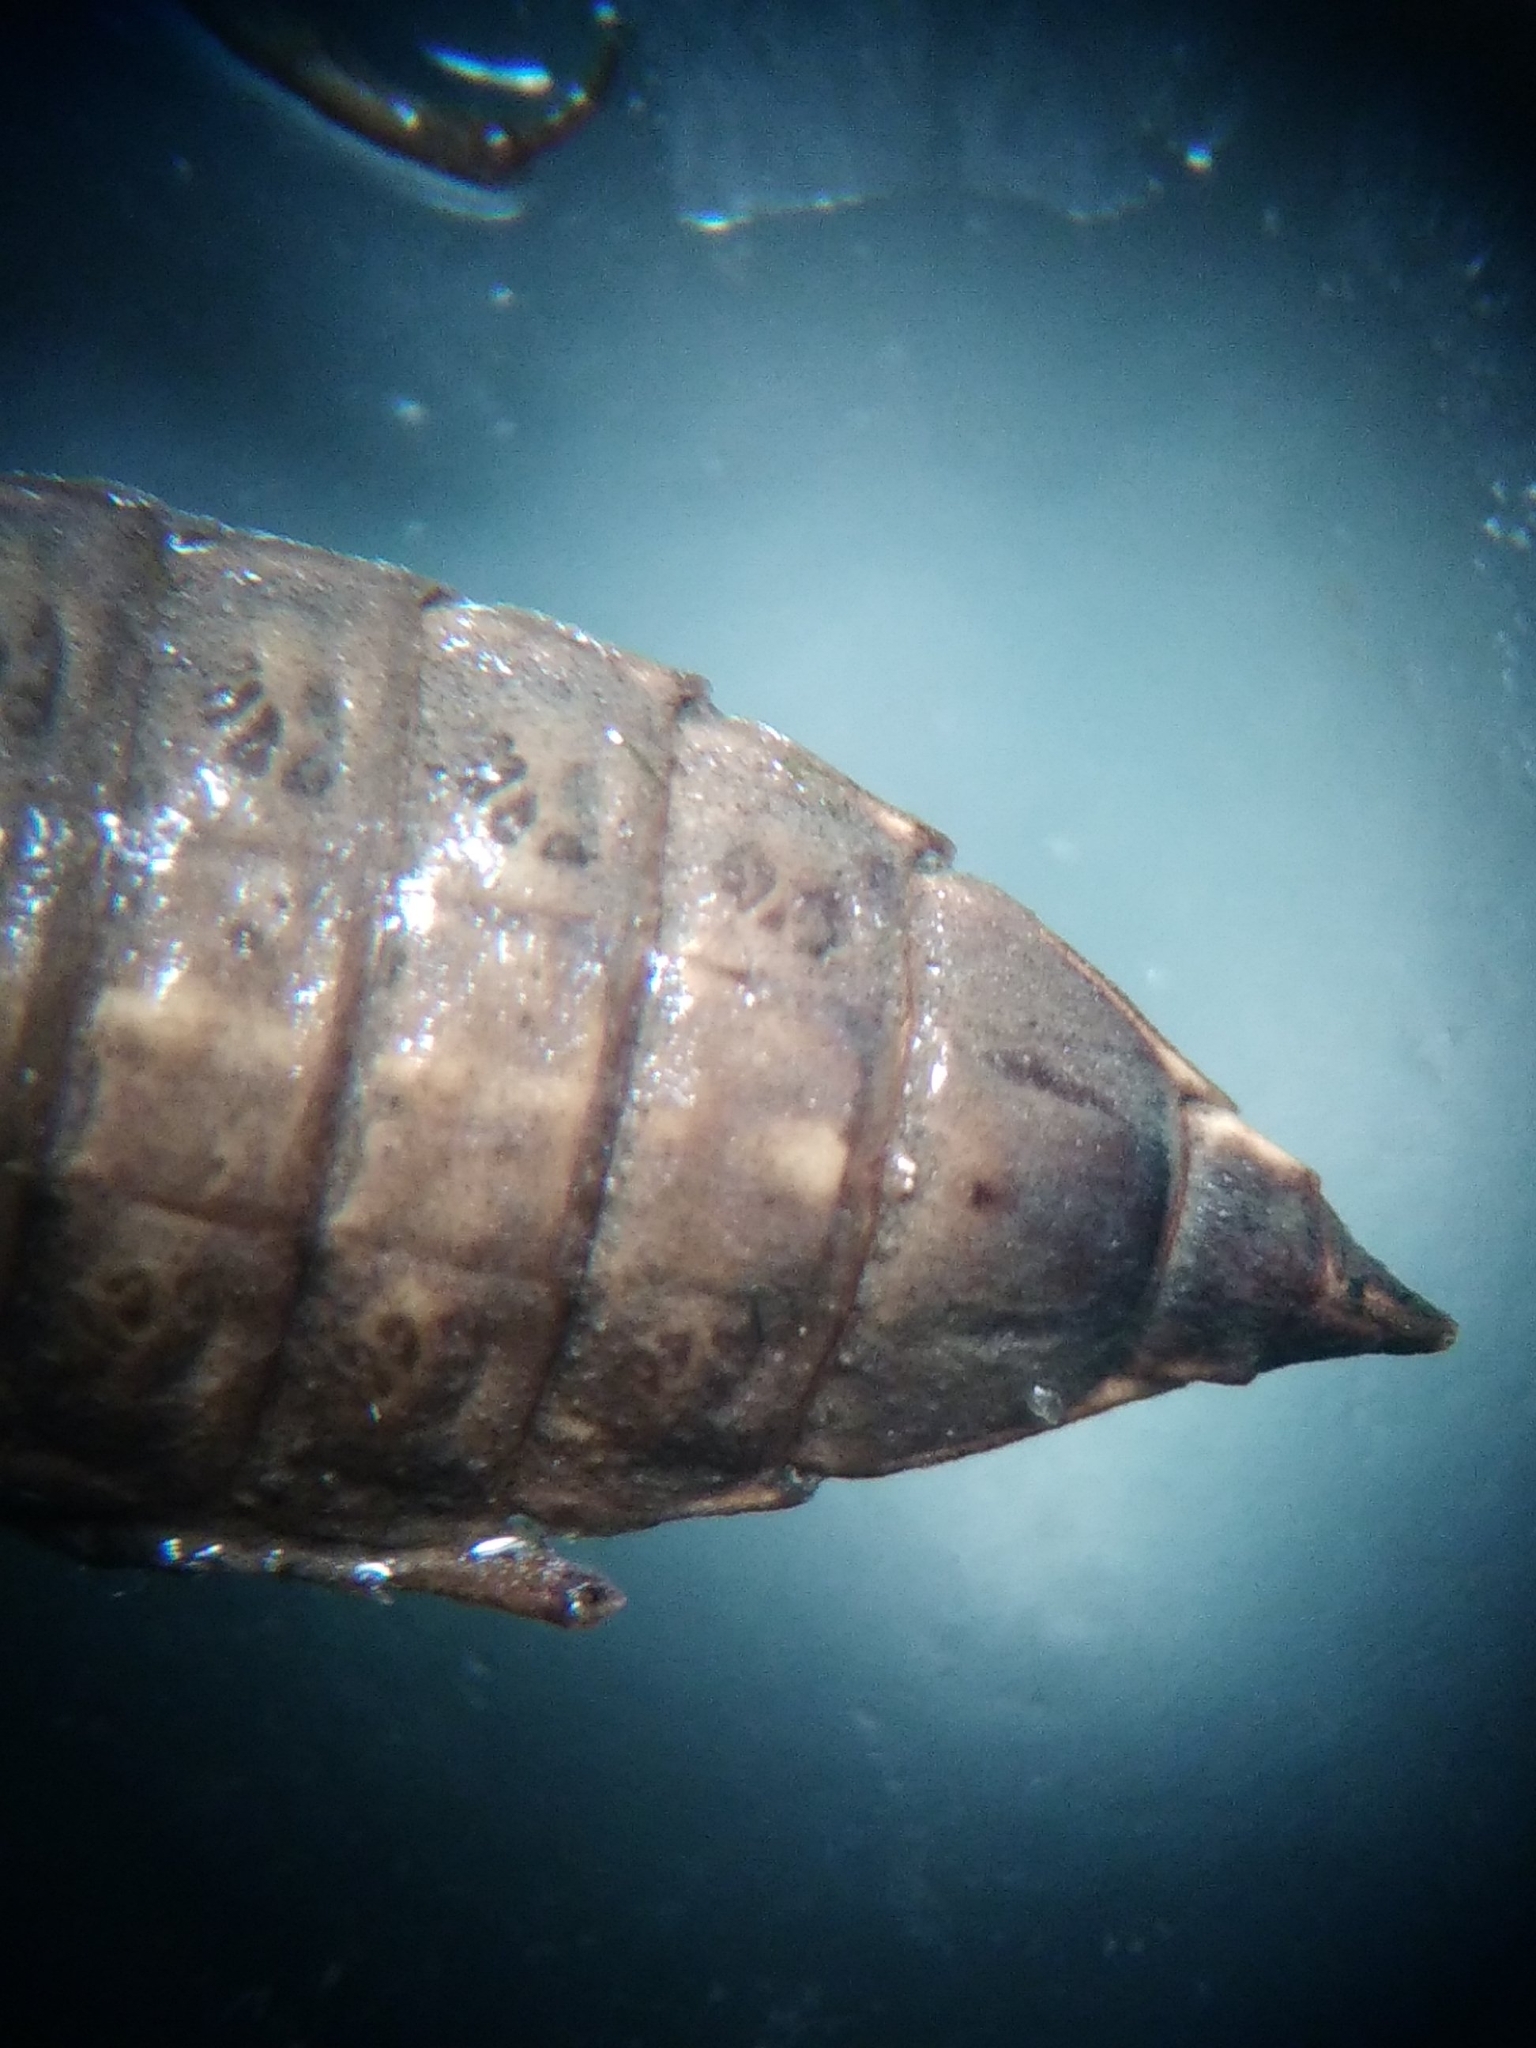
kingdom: Animalia
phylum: Arthropoda
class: Insecta
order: Odonata
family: Gomphidae
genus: Gomphus
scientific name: Gomphus graslinii
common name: Pronged clubtail
